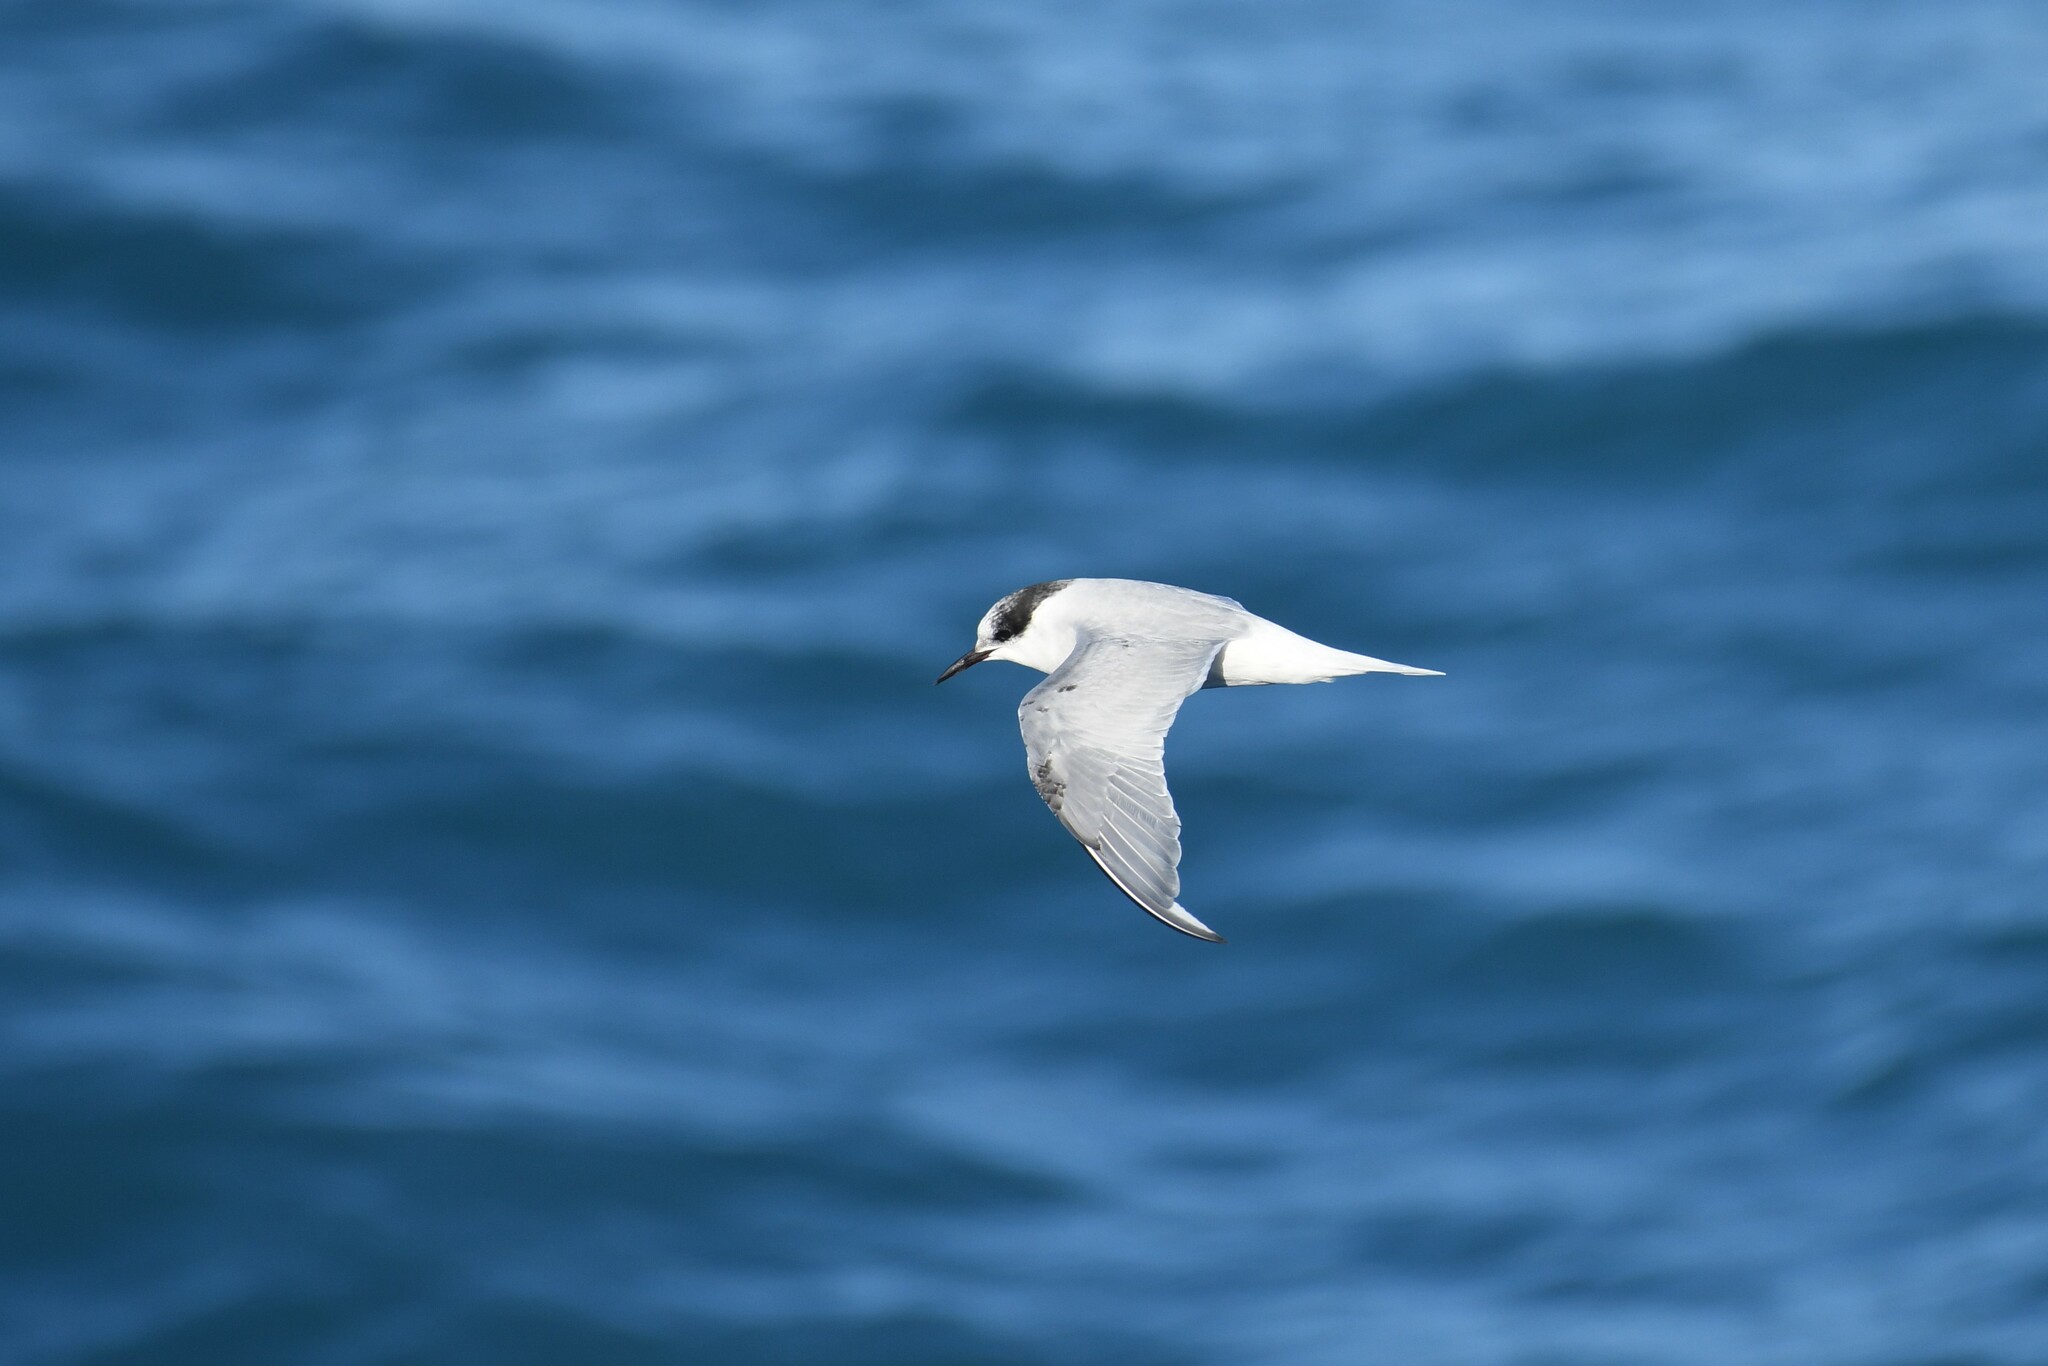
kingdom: Animalia
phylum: Chordata
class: Aves
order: Charadriiformes
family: Laridae
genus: Sterna
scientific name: Sterna vittata
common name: Antarctic tern
